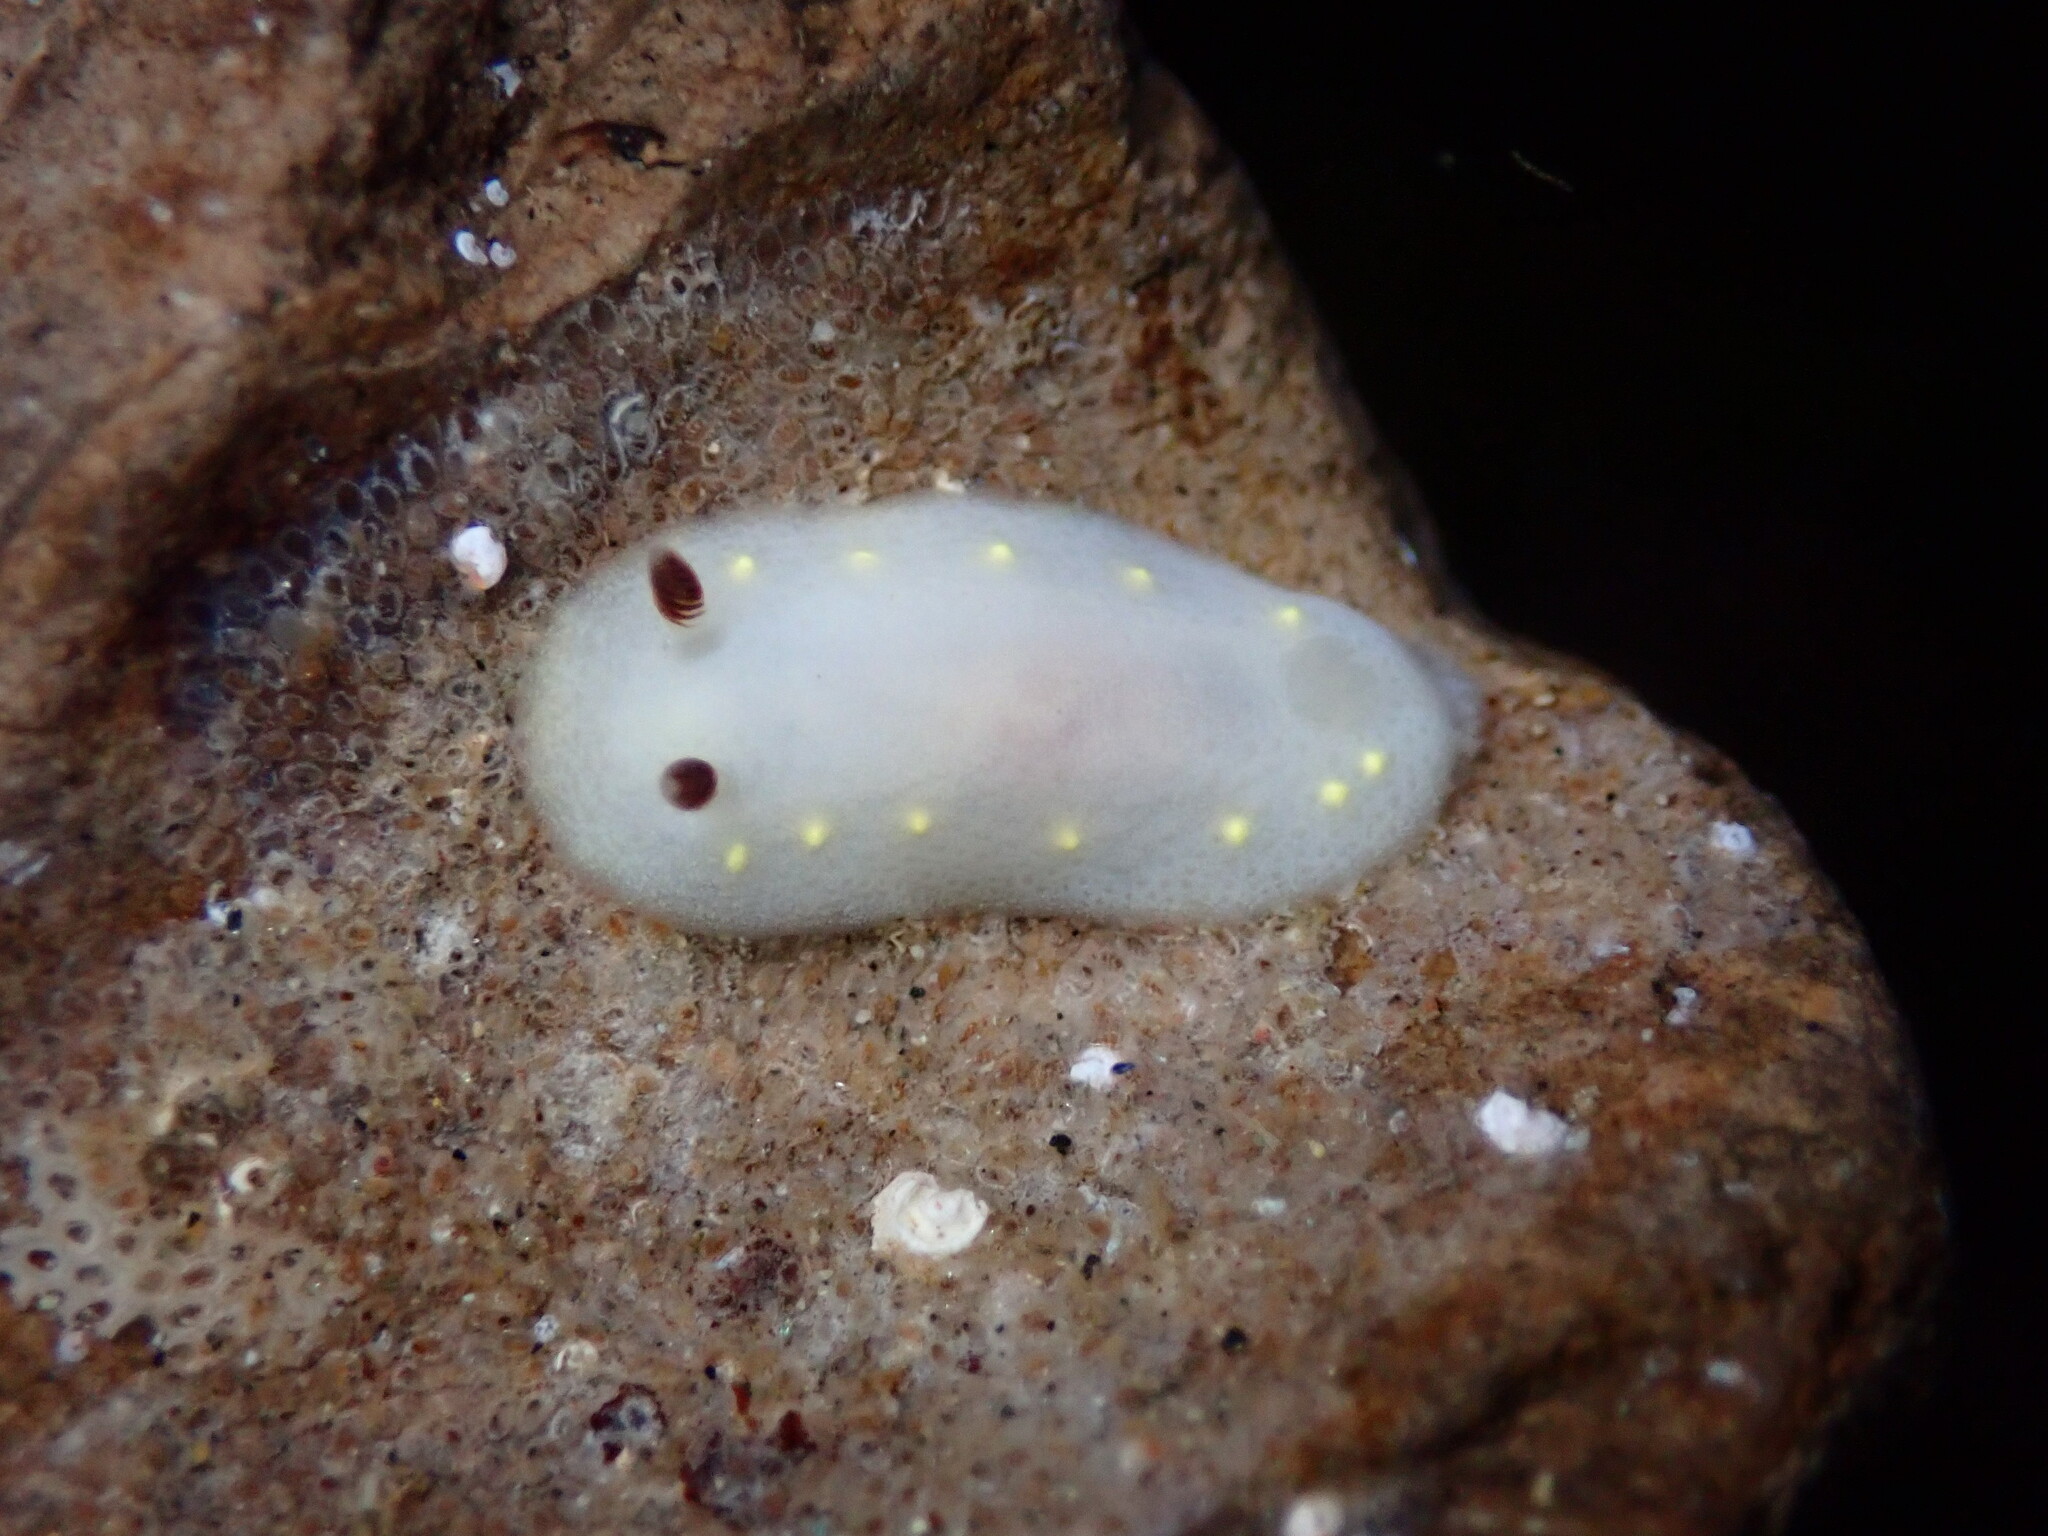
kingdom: Animalia
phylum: Mollusca
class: Gastropoda
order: Nudibranchia
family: Cadlinidae
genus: Cadlina
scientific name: Cadlina flavomaculata
